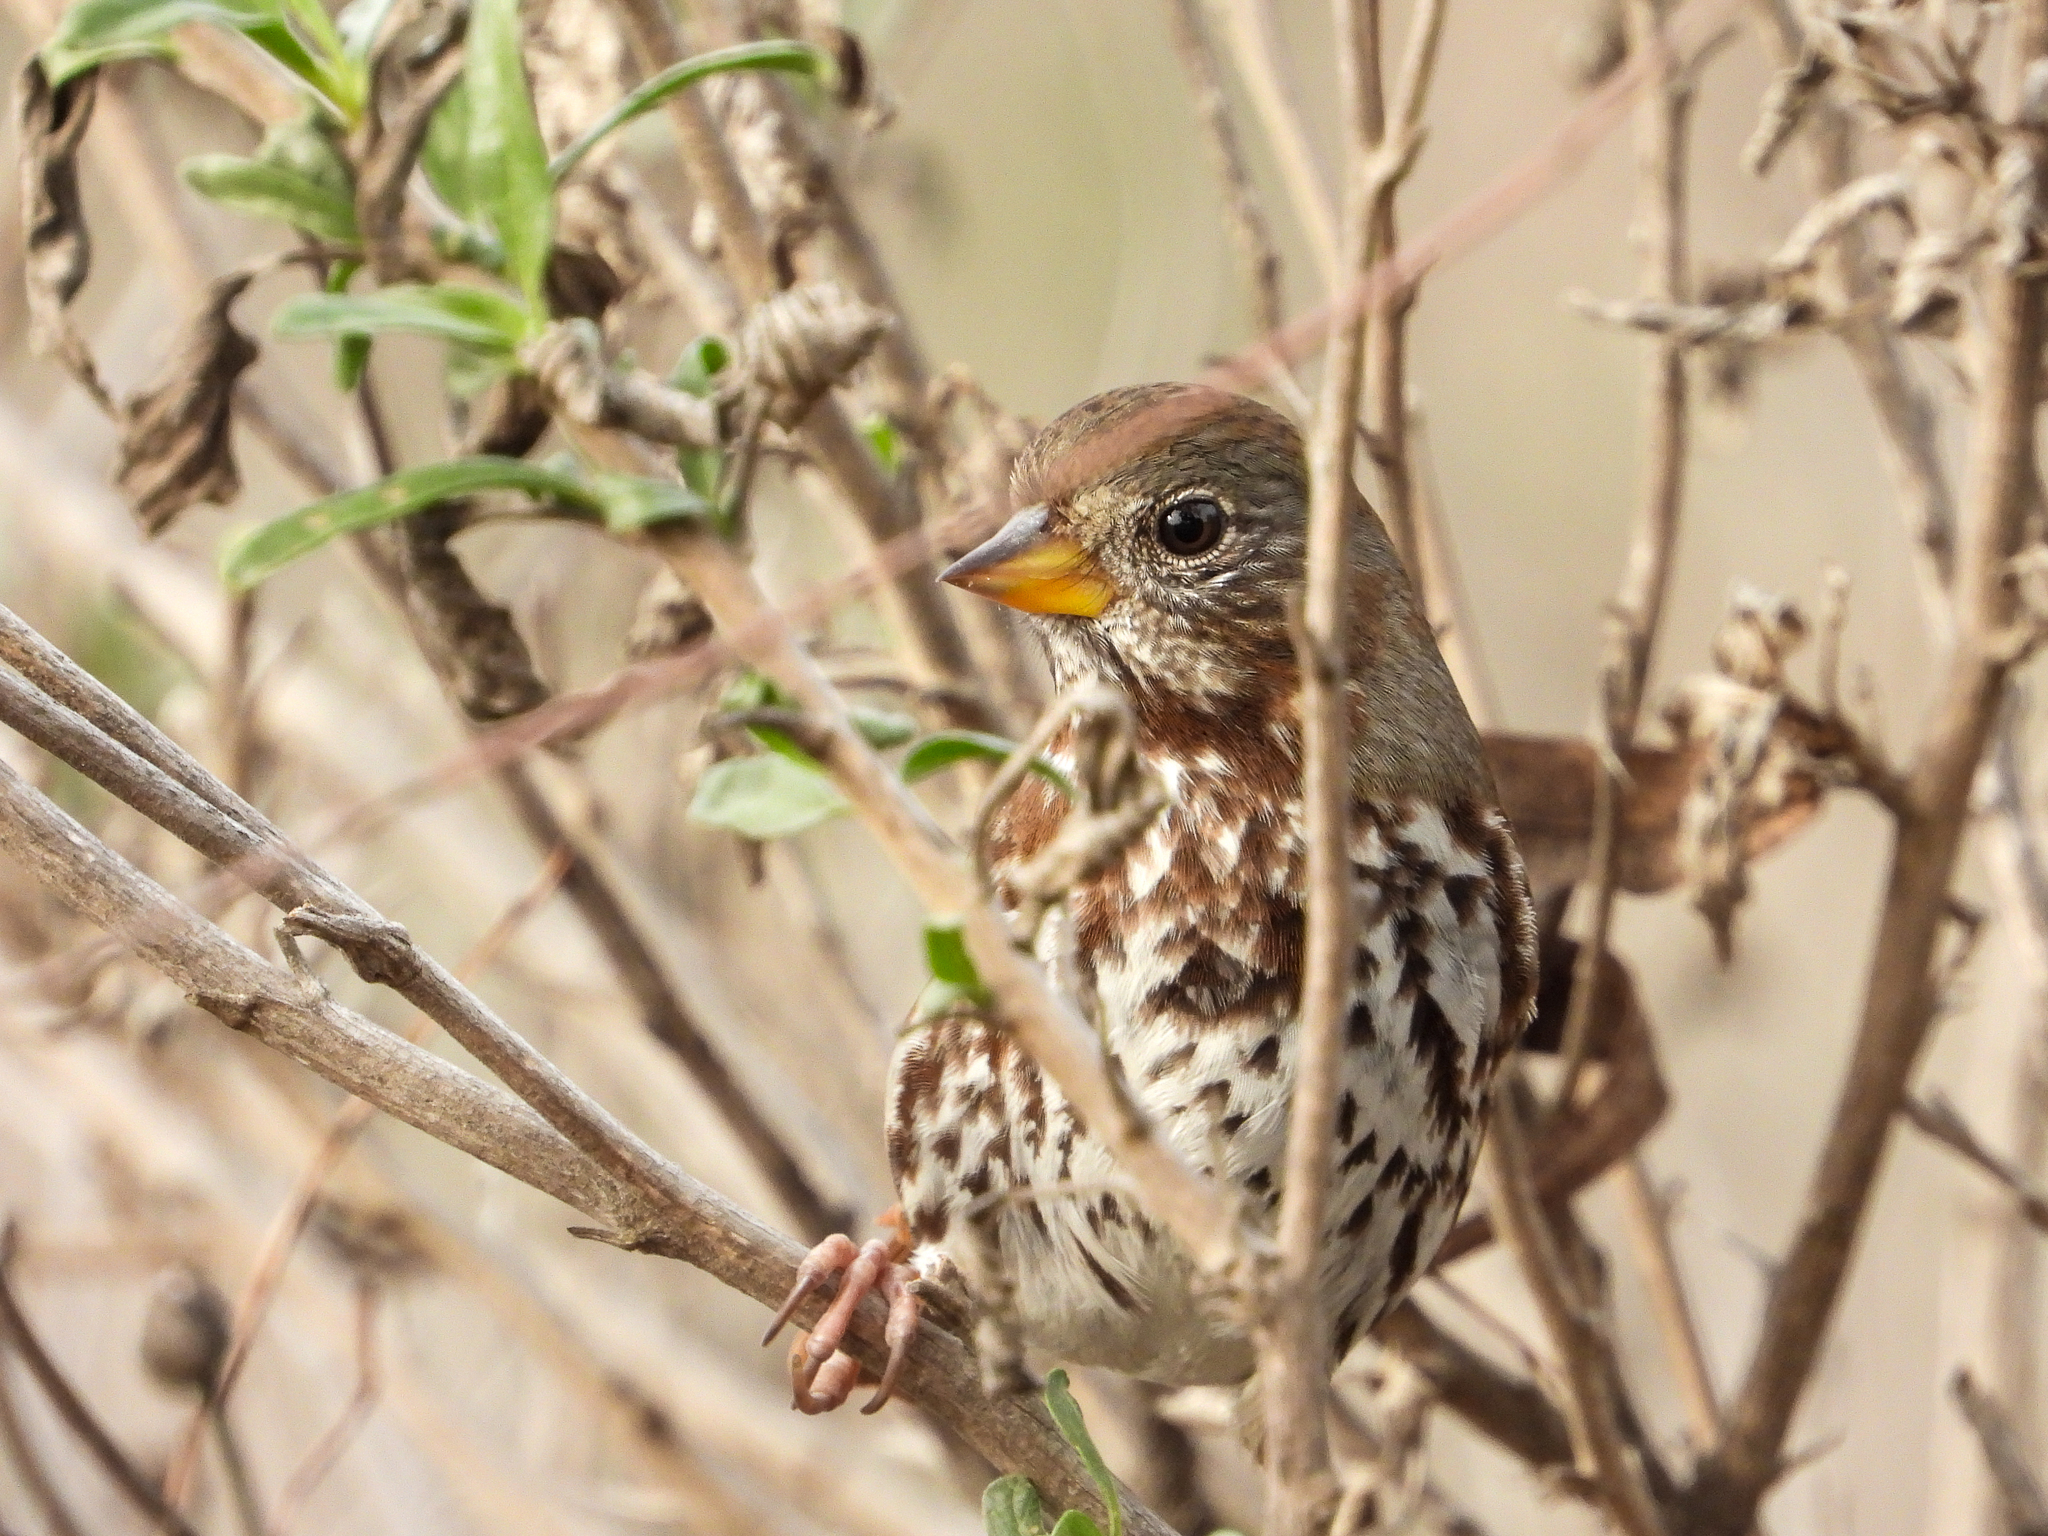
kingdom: Animalia
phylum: Chordata
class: Aves
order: Passeriformes
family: Passerellidae
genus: Passerella
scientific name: Passerella iliaca
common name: Fox sparrow
